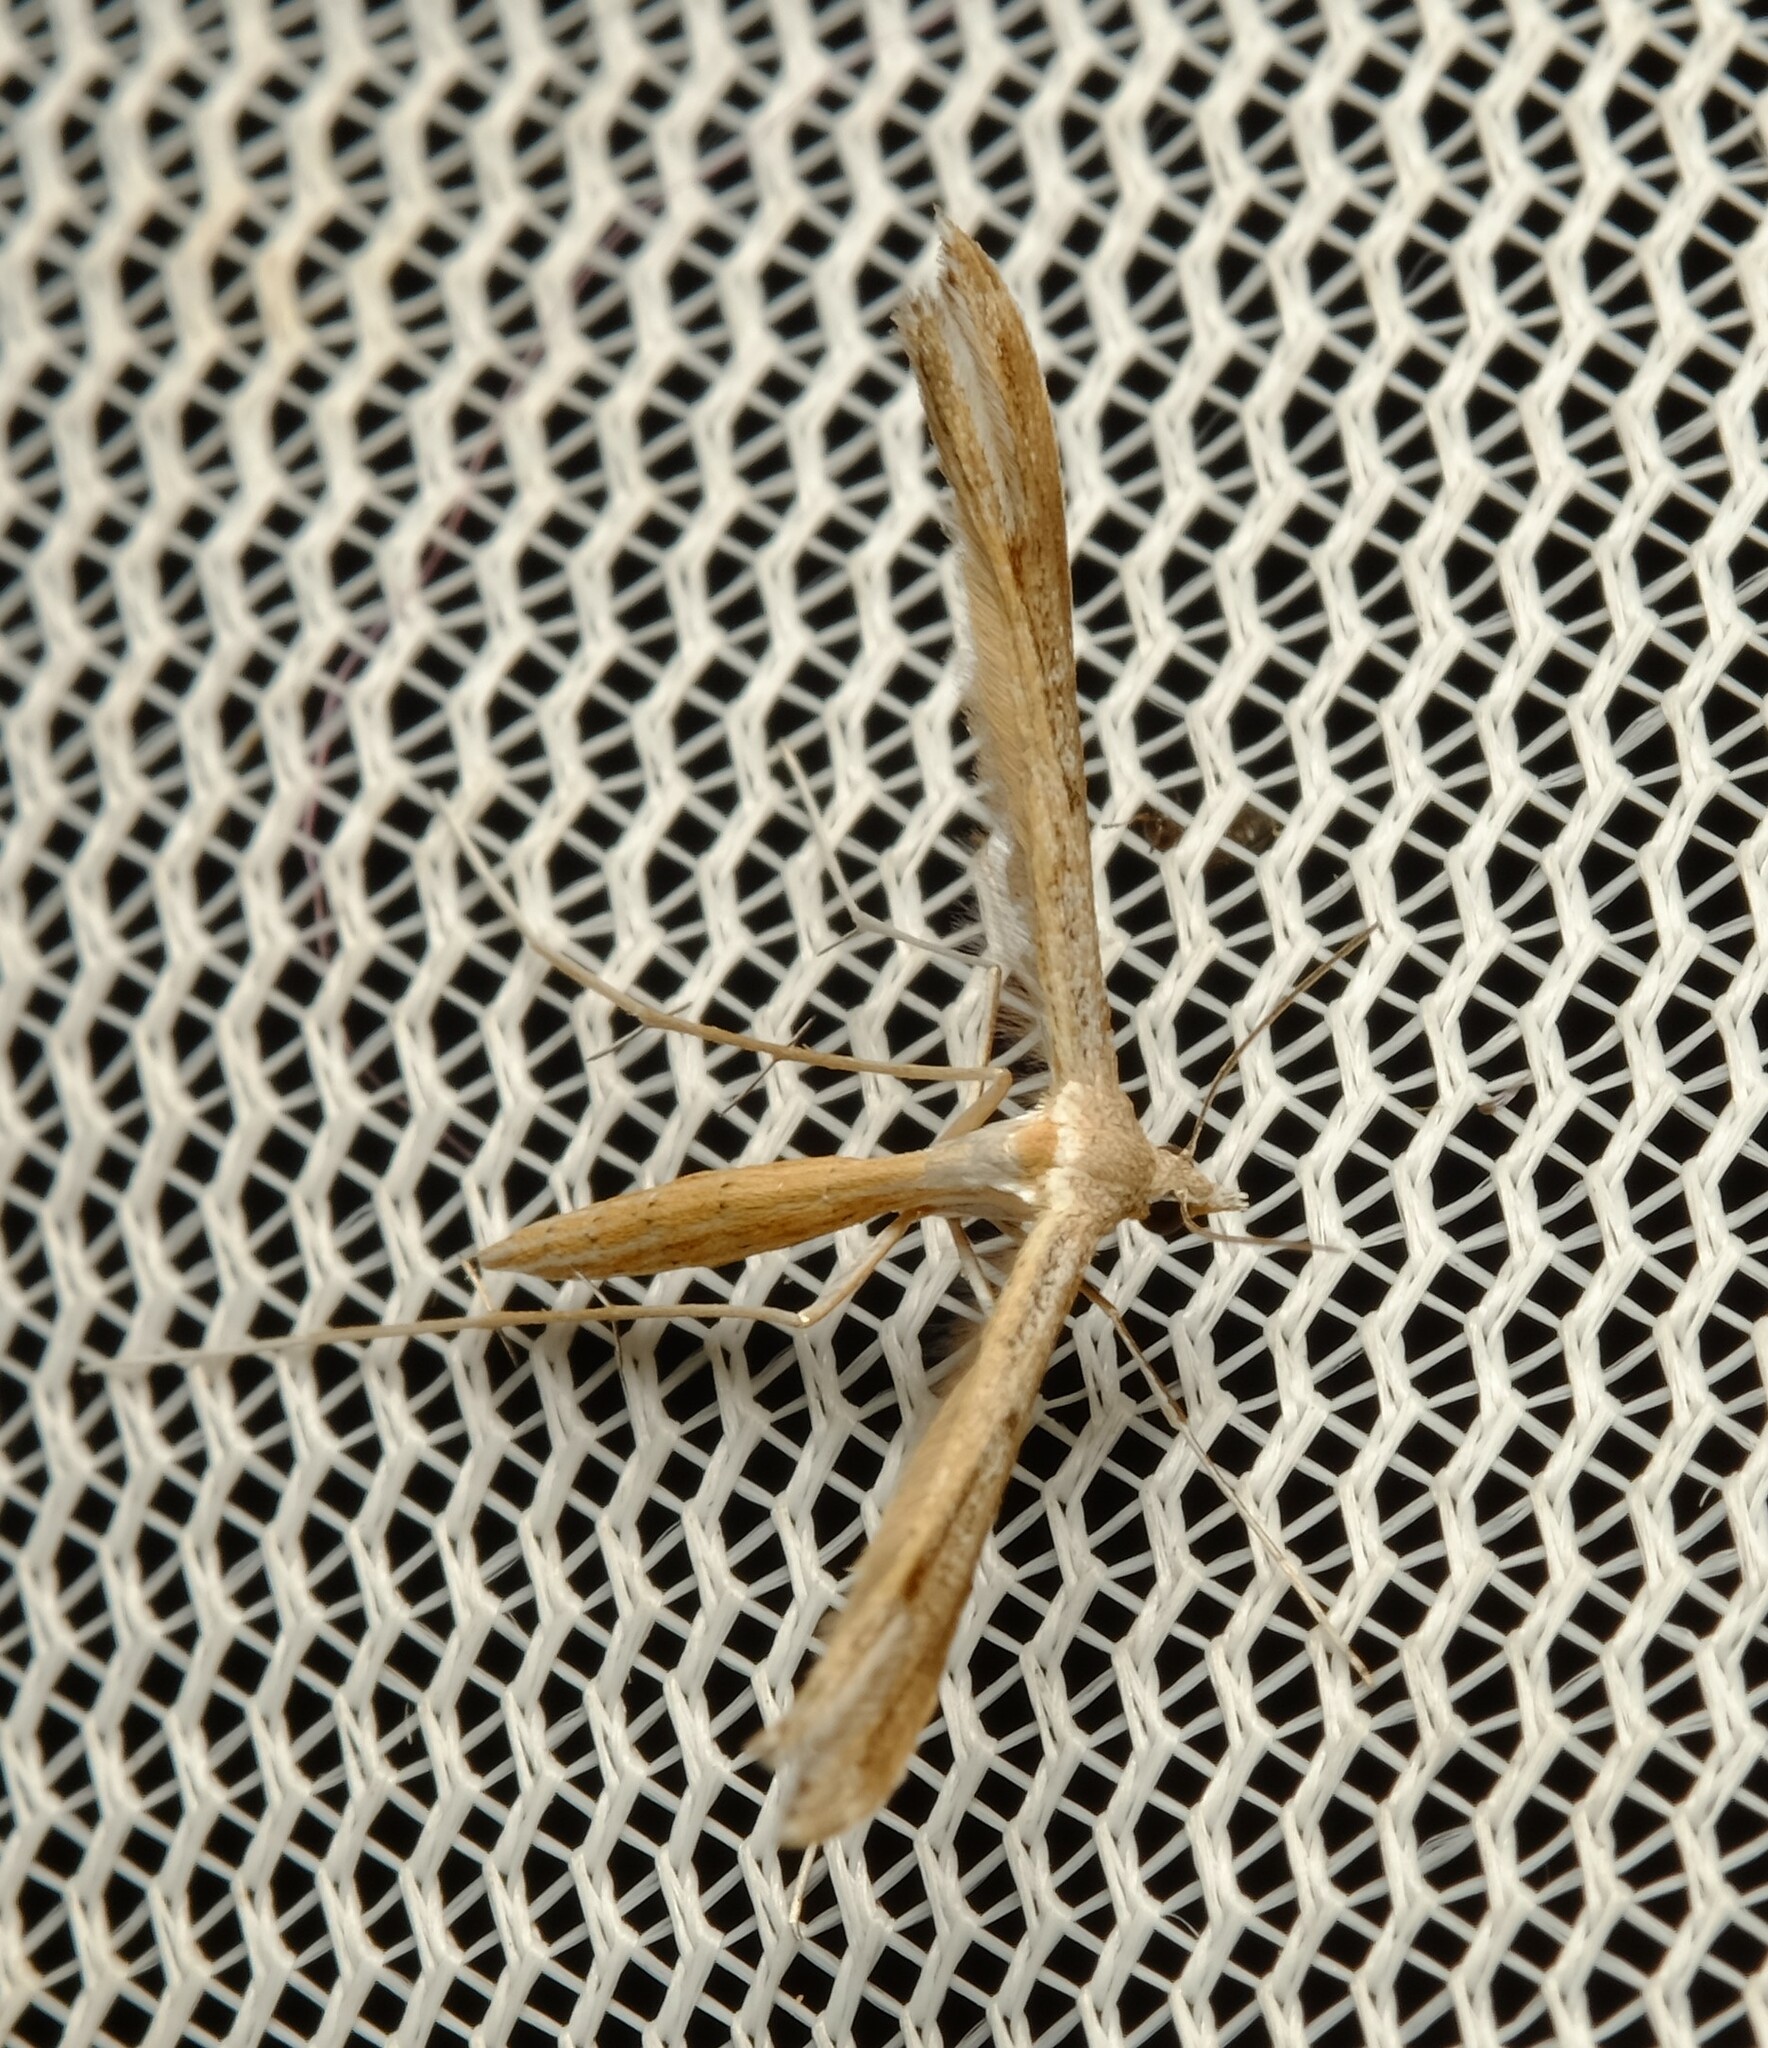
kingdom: Animalia
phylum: Arthropoda
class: Insecta
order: Lepidoptera
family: Pterophoridae
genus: Stenoptilia
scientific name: Stenoptilia zophodactylus
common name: Dowdy plume
